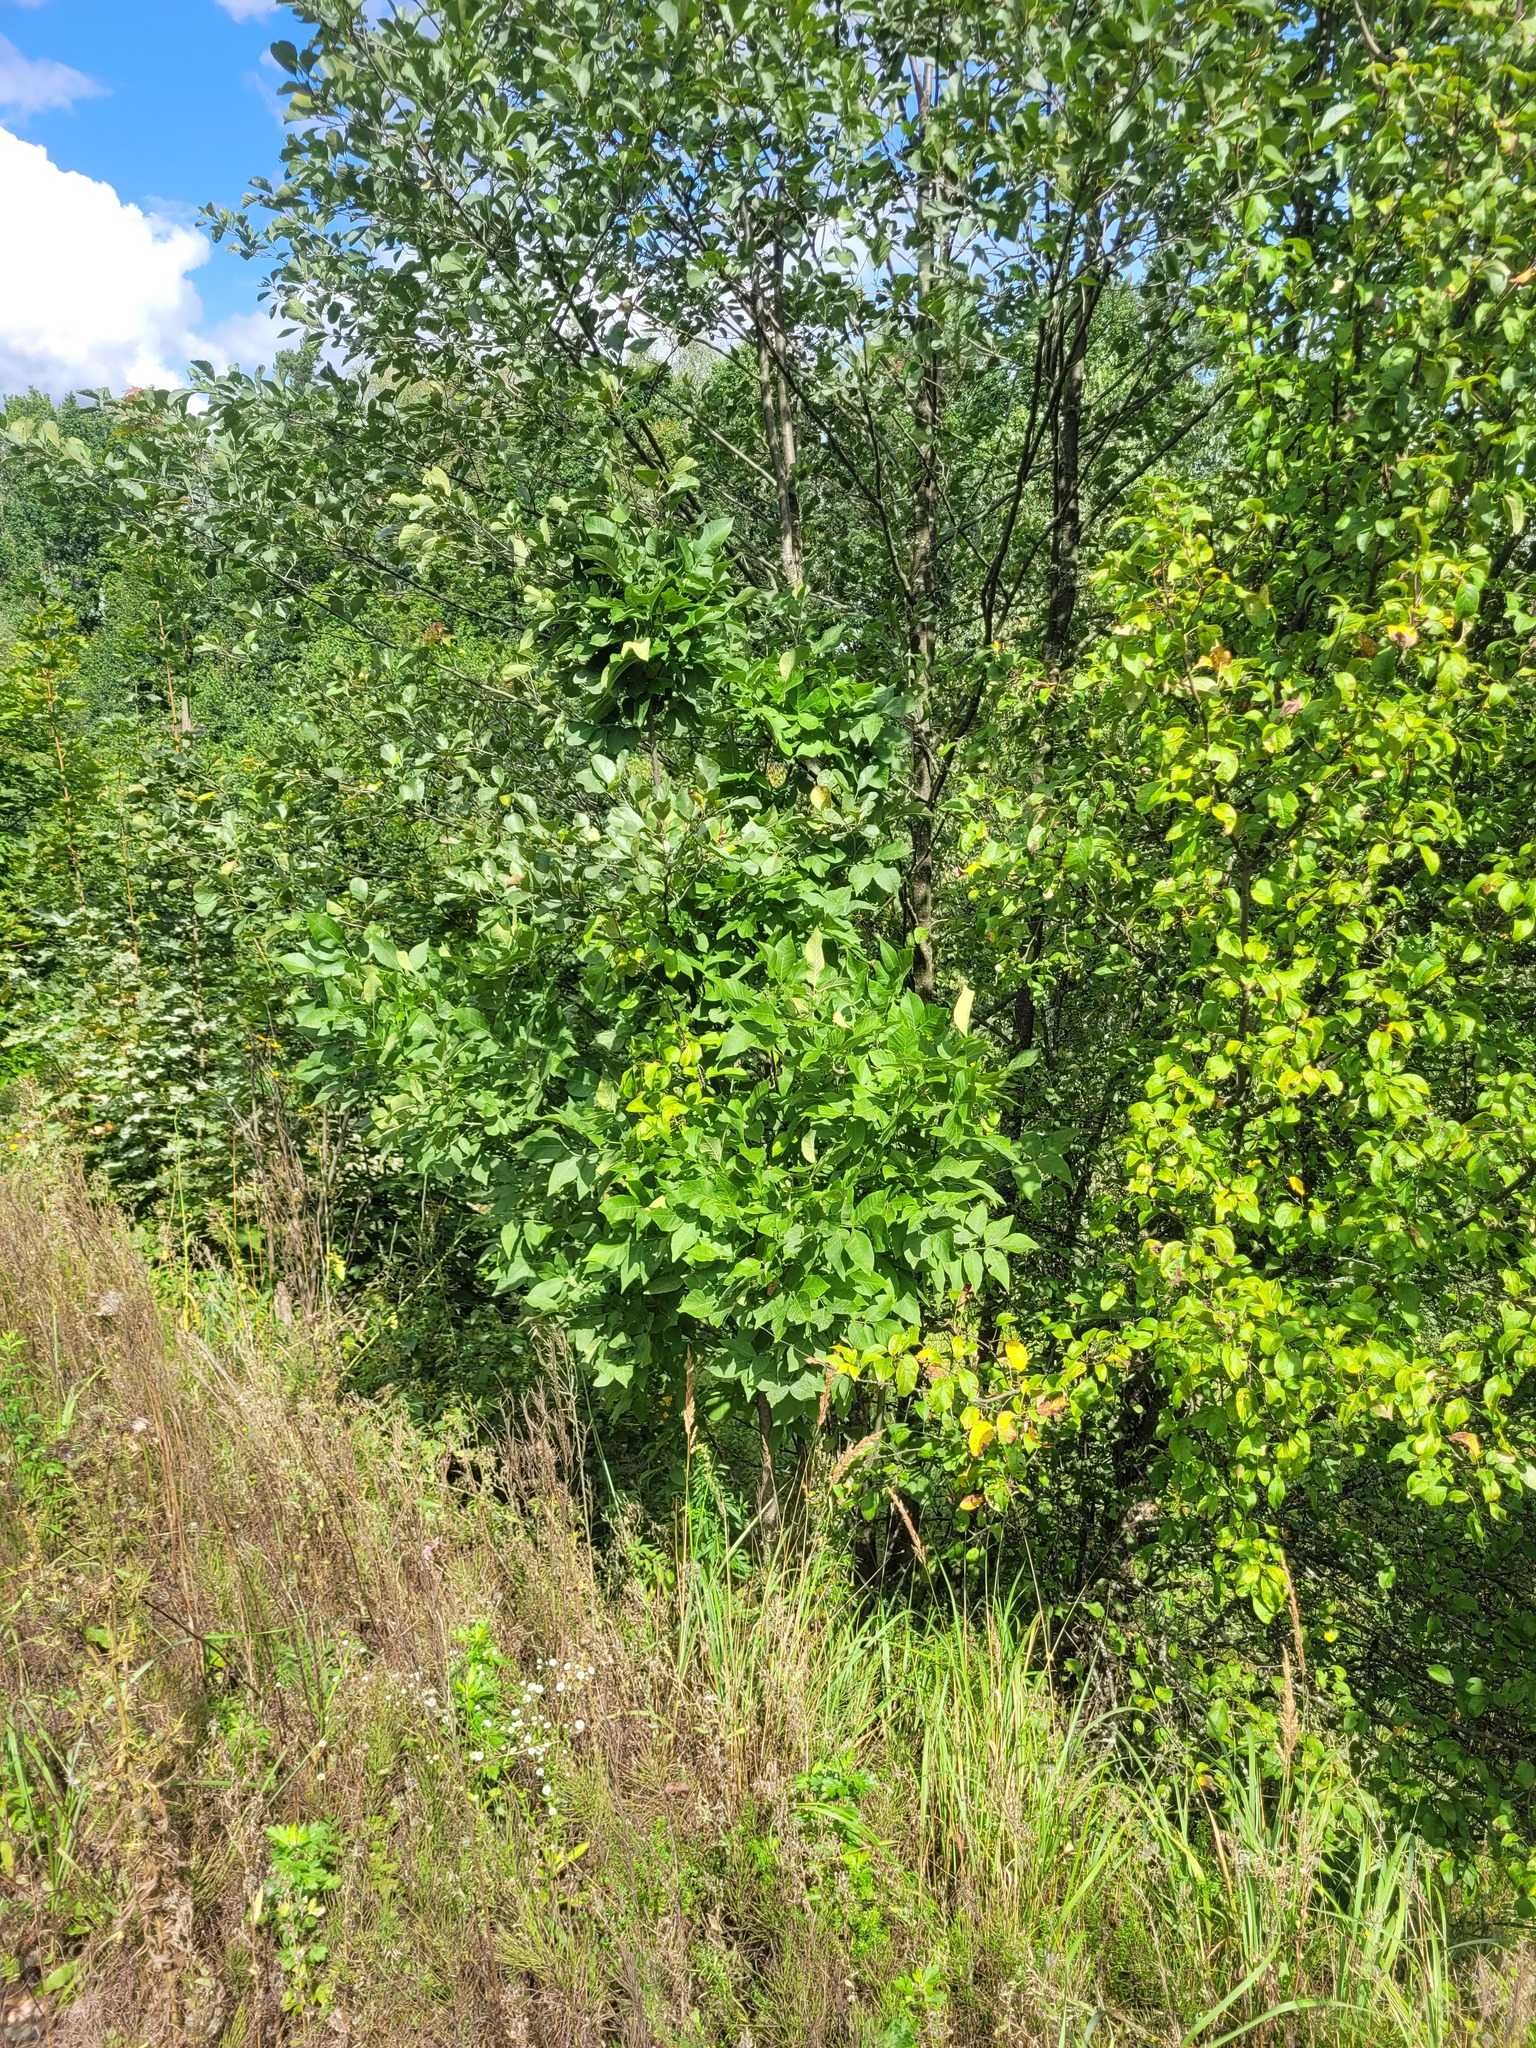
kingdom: Plantae
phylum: Tracheophyta
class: Magnoliopsida
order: Lamiales
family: Oleaceae
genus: Fraxinus
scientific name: Fraxinus pennsylvanica
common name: Green ash
